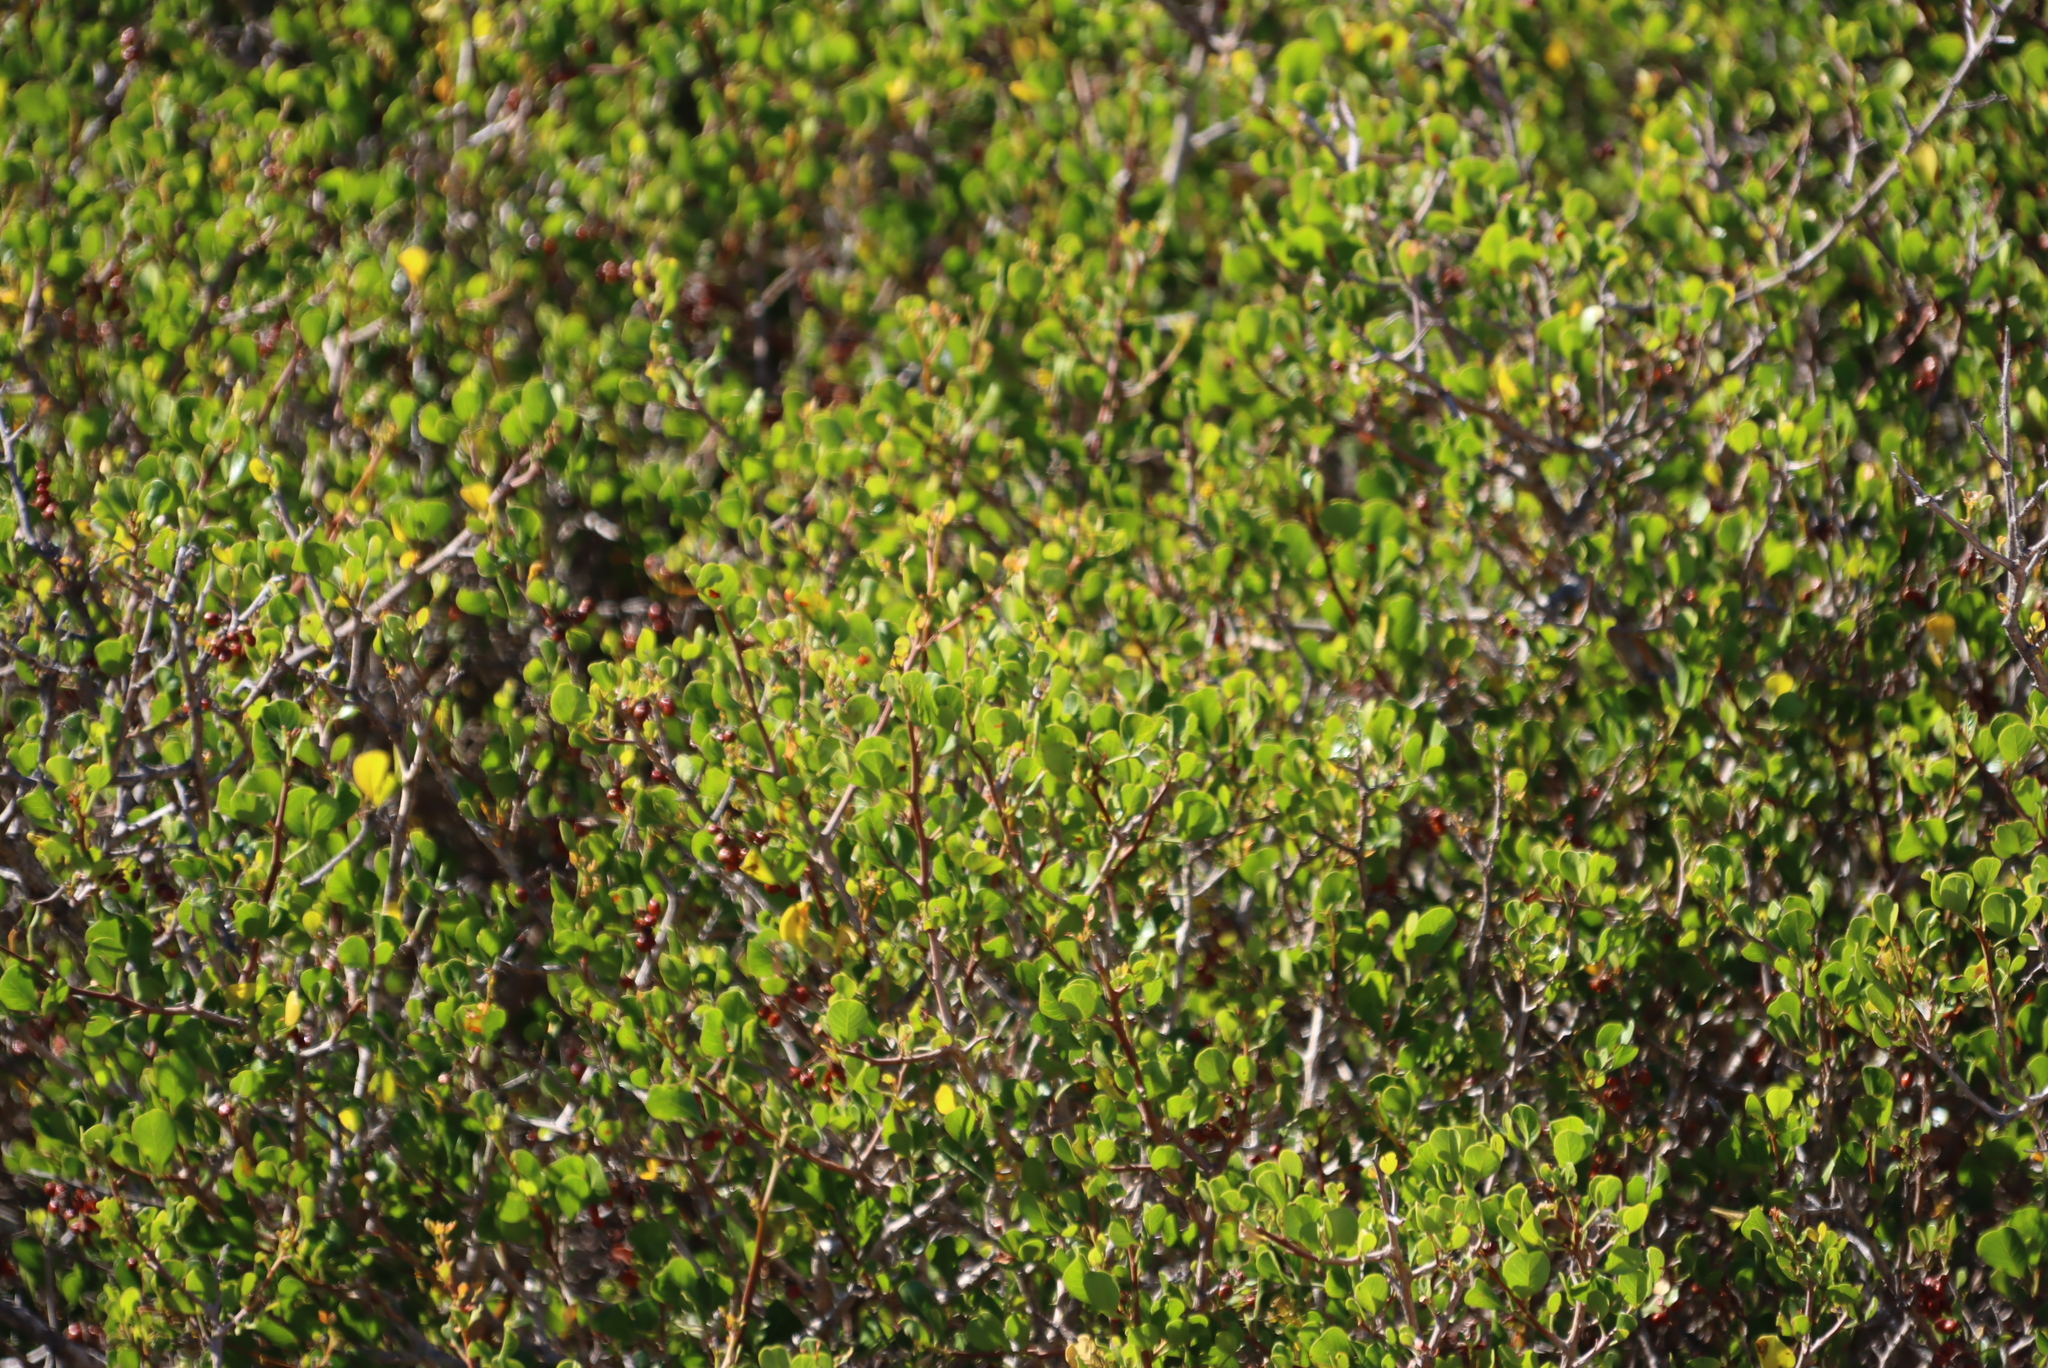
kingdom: Plantae
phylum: Tracheophyta
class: Magnoliopsida
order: Sapindales
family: Anacardiaceae
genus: Searsia
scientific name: Searsia glauca
